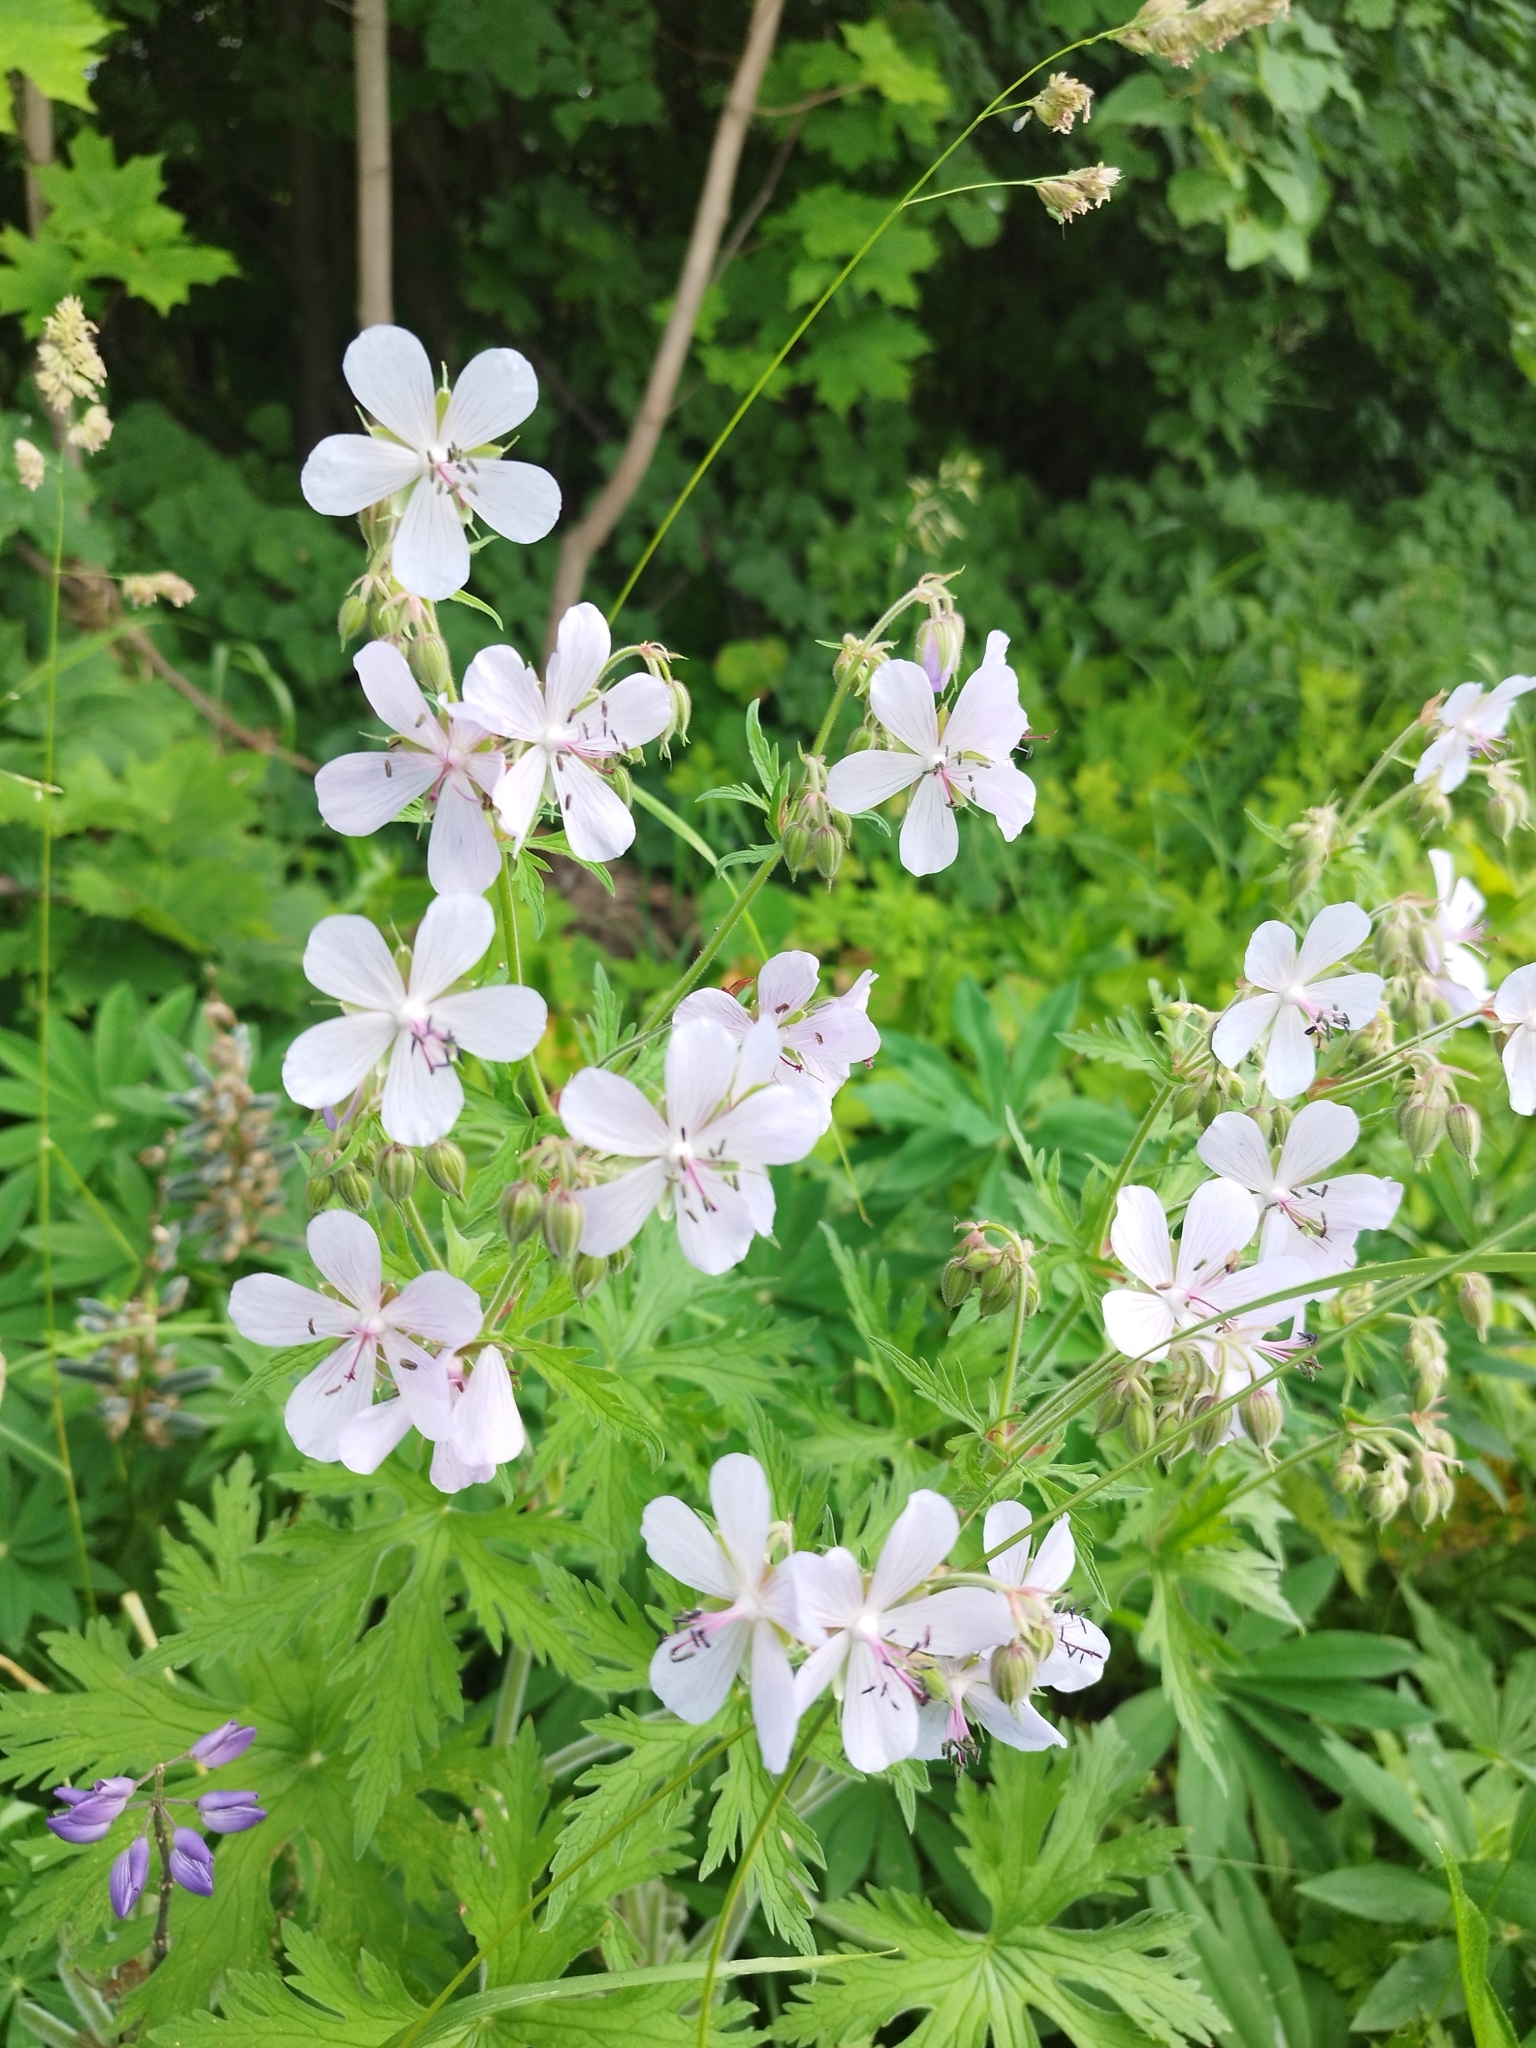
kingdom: Plantae
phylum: Tracheophyta
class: Magnoliopsida
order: Geraniales
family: Geraniaceae
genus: Geranium
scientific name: Geranium pratense
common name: Meadow crane's-bill
